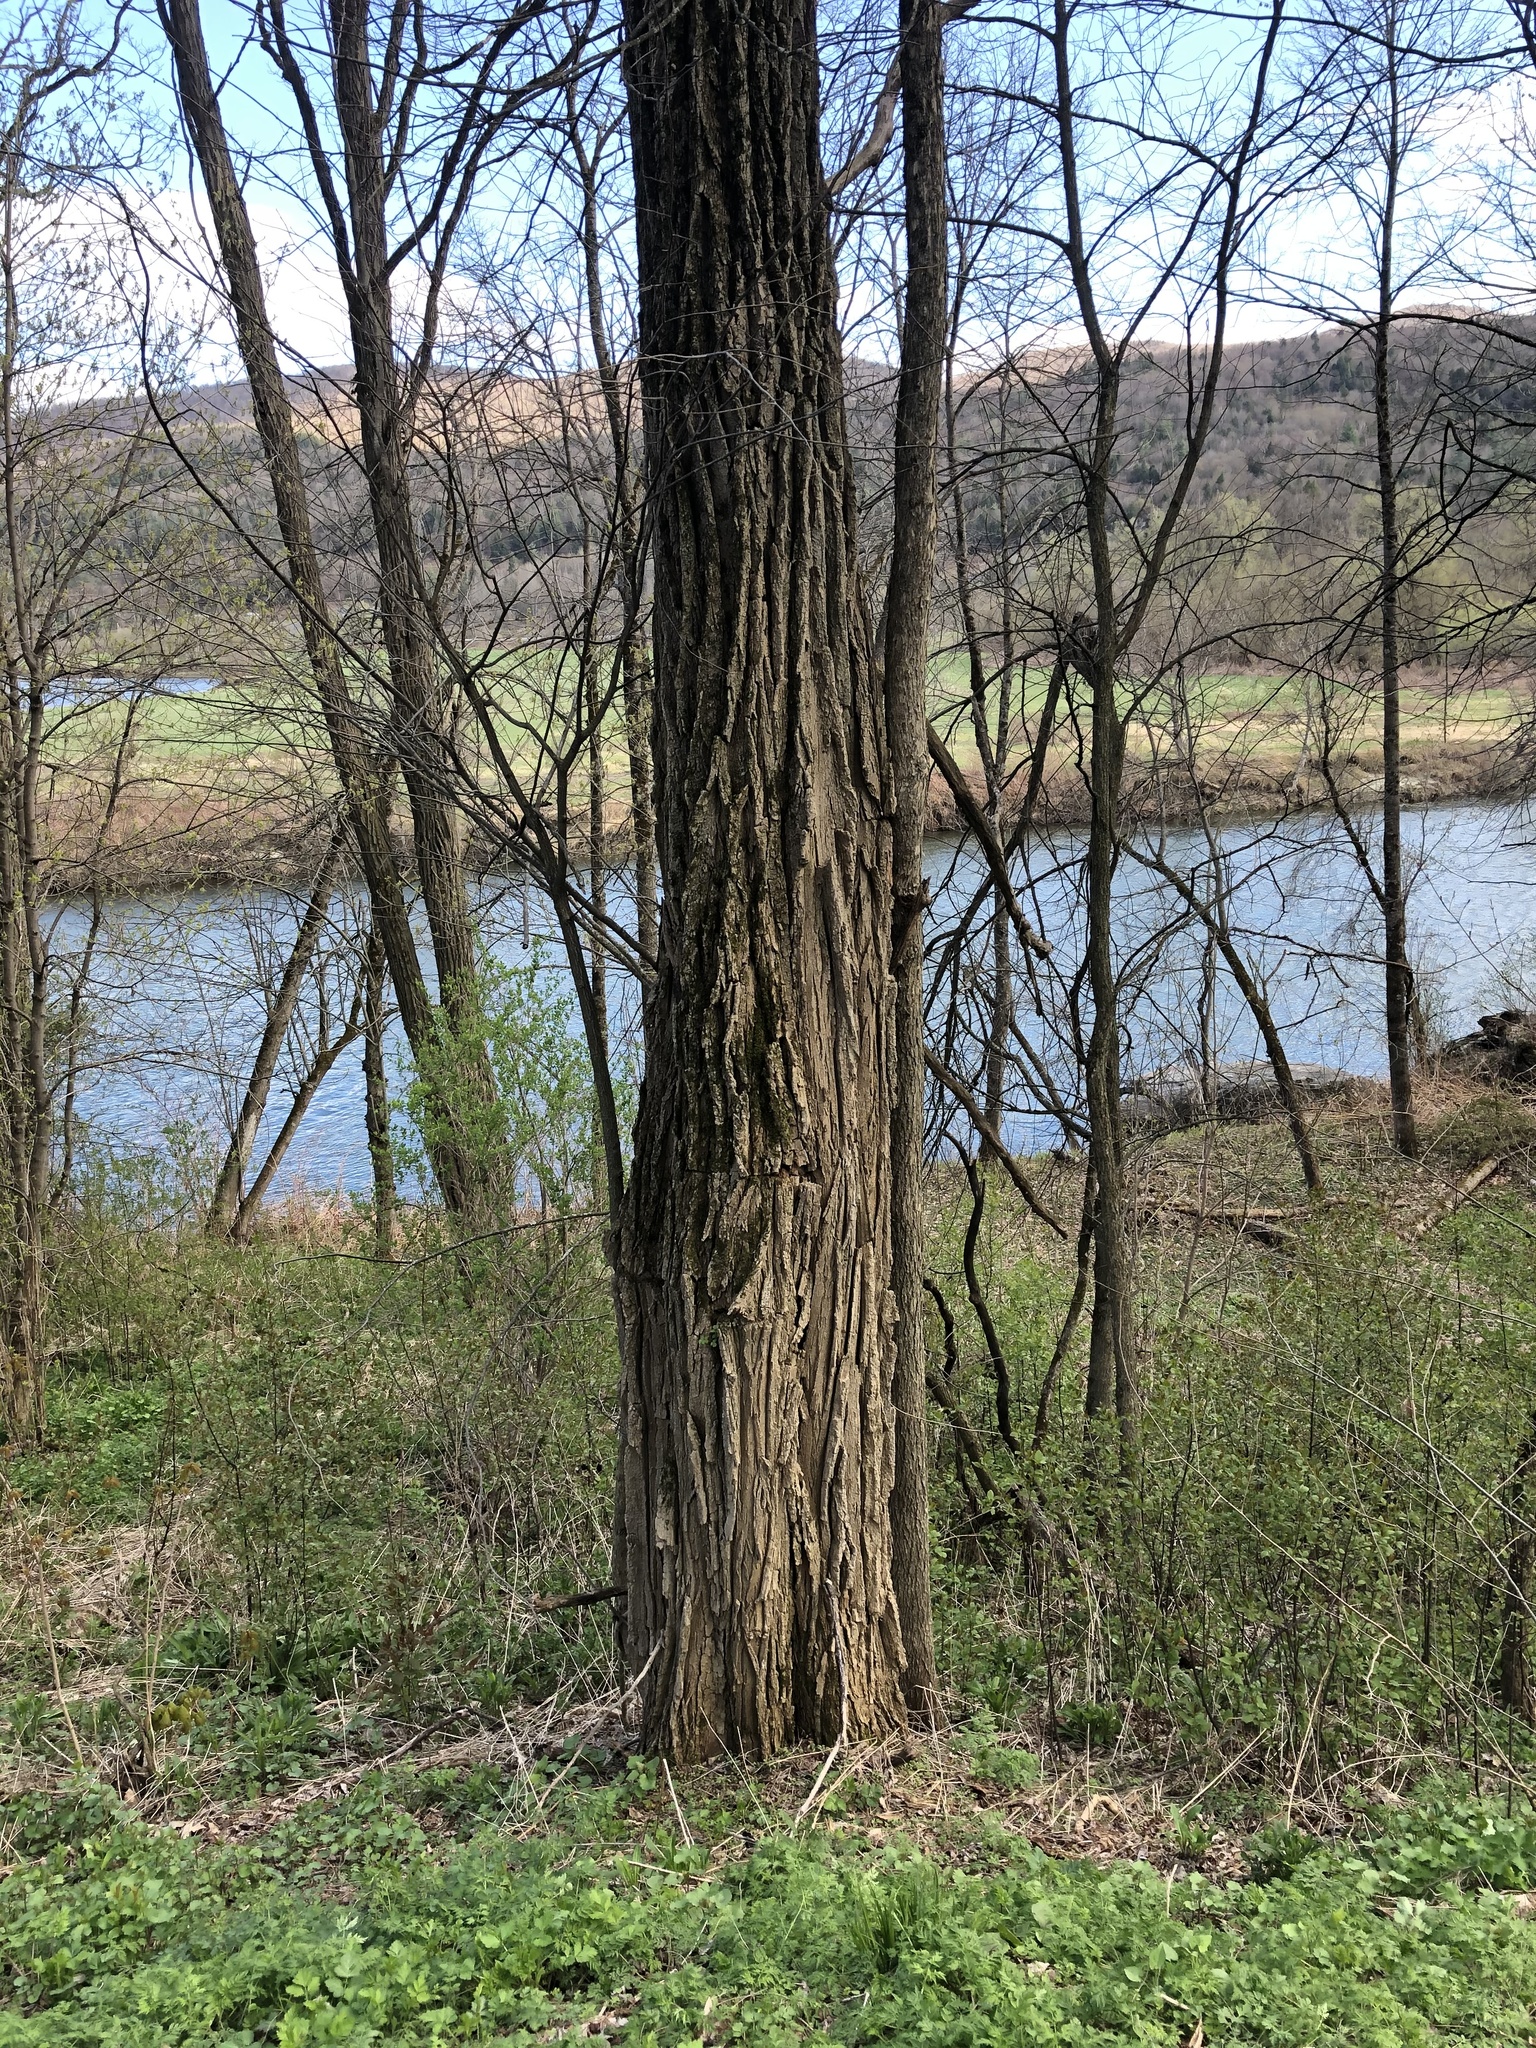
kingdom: Plantae
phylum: Tracheophyta
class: Magnoliopsida
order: Fabales
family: Fabaceae
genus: Robinia
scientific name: Robinia pseudoacacia
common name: Black locust
